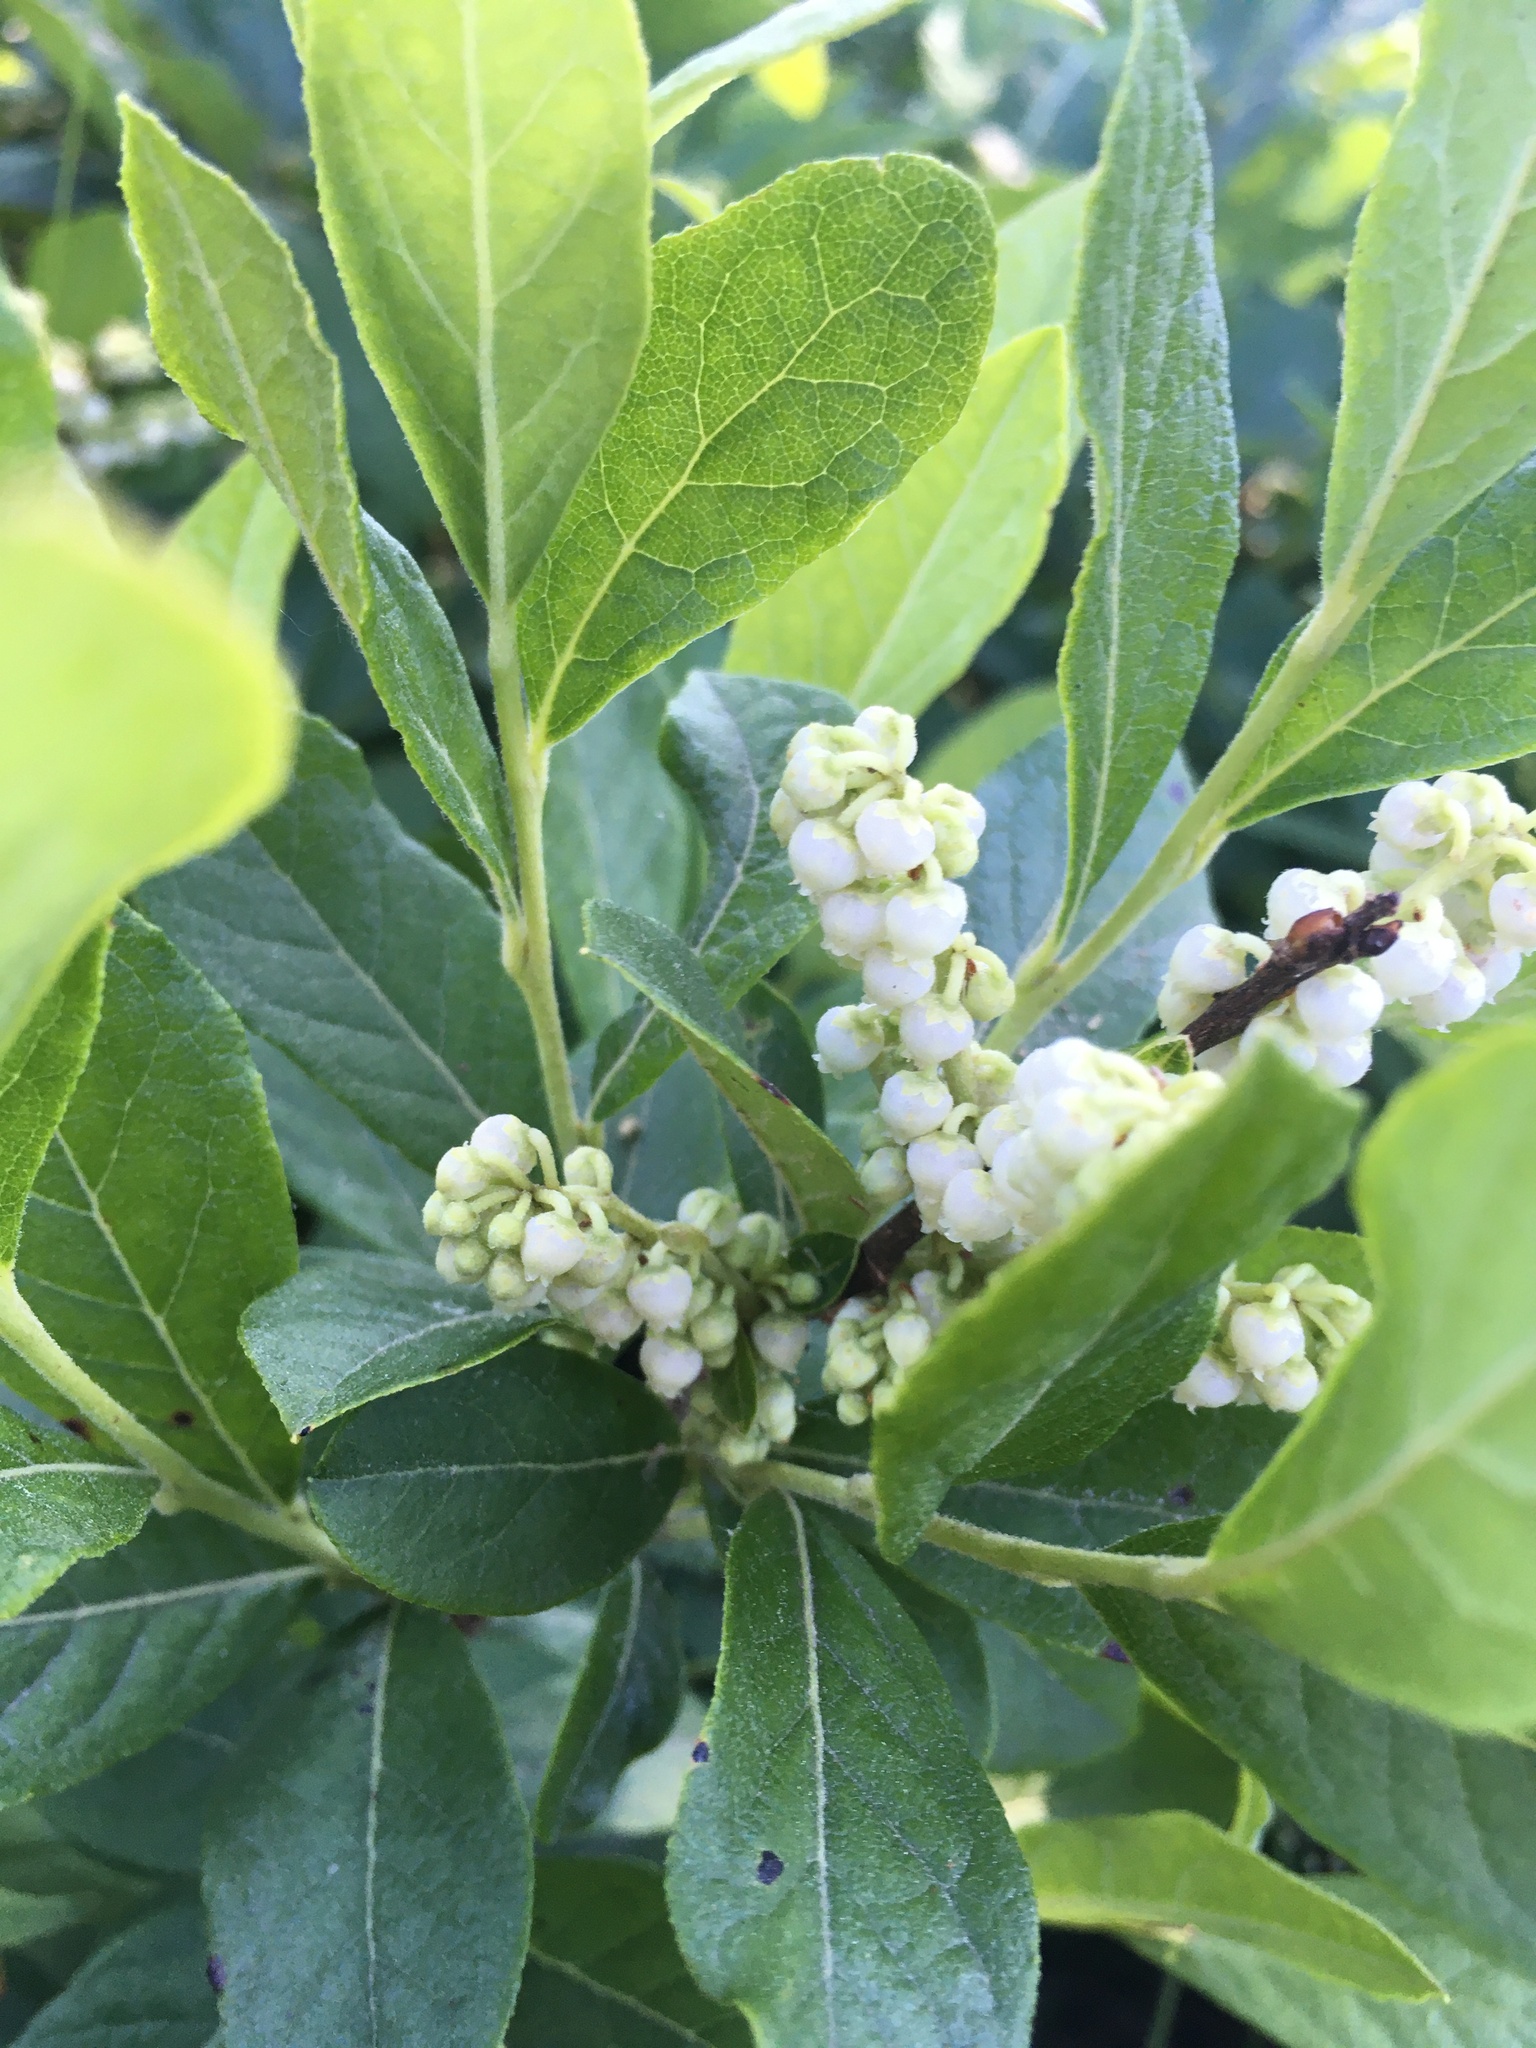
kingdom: Plantae
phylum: Tracheophyta
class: Magnoliopsida
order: Ericales
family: Ericaceae
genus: Lyonia
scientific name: Lyonia ligustrina
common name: Maleberry
